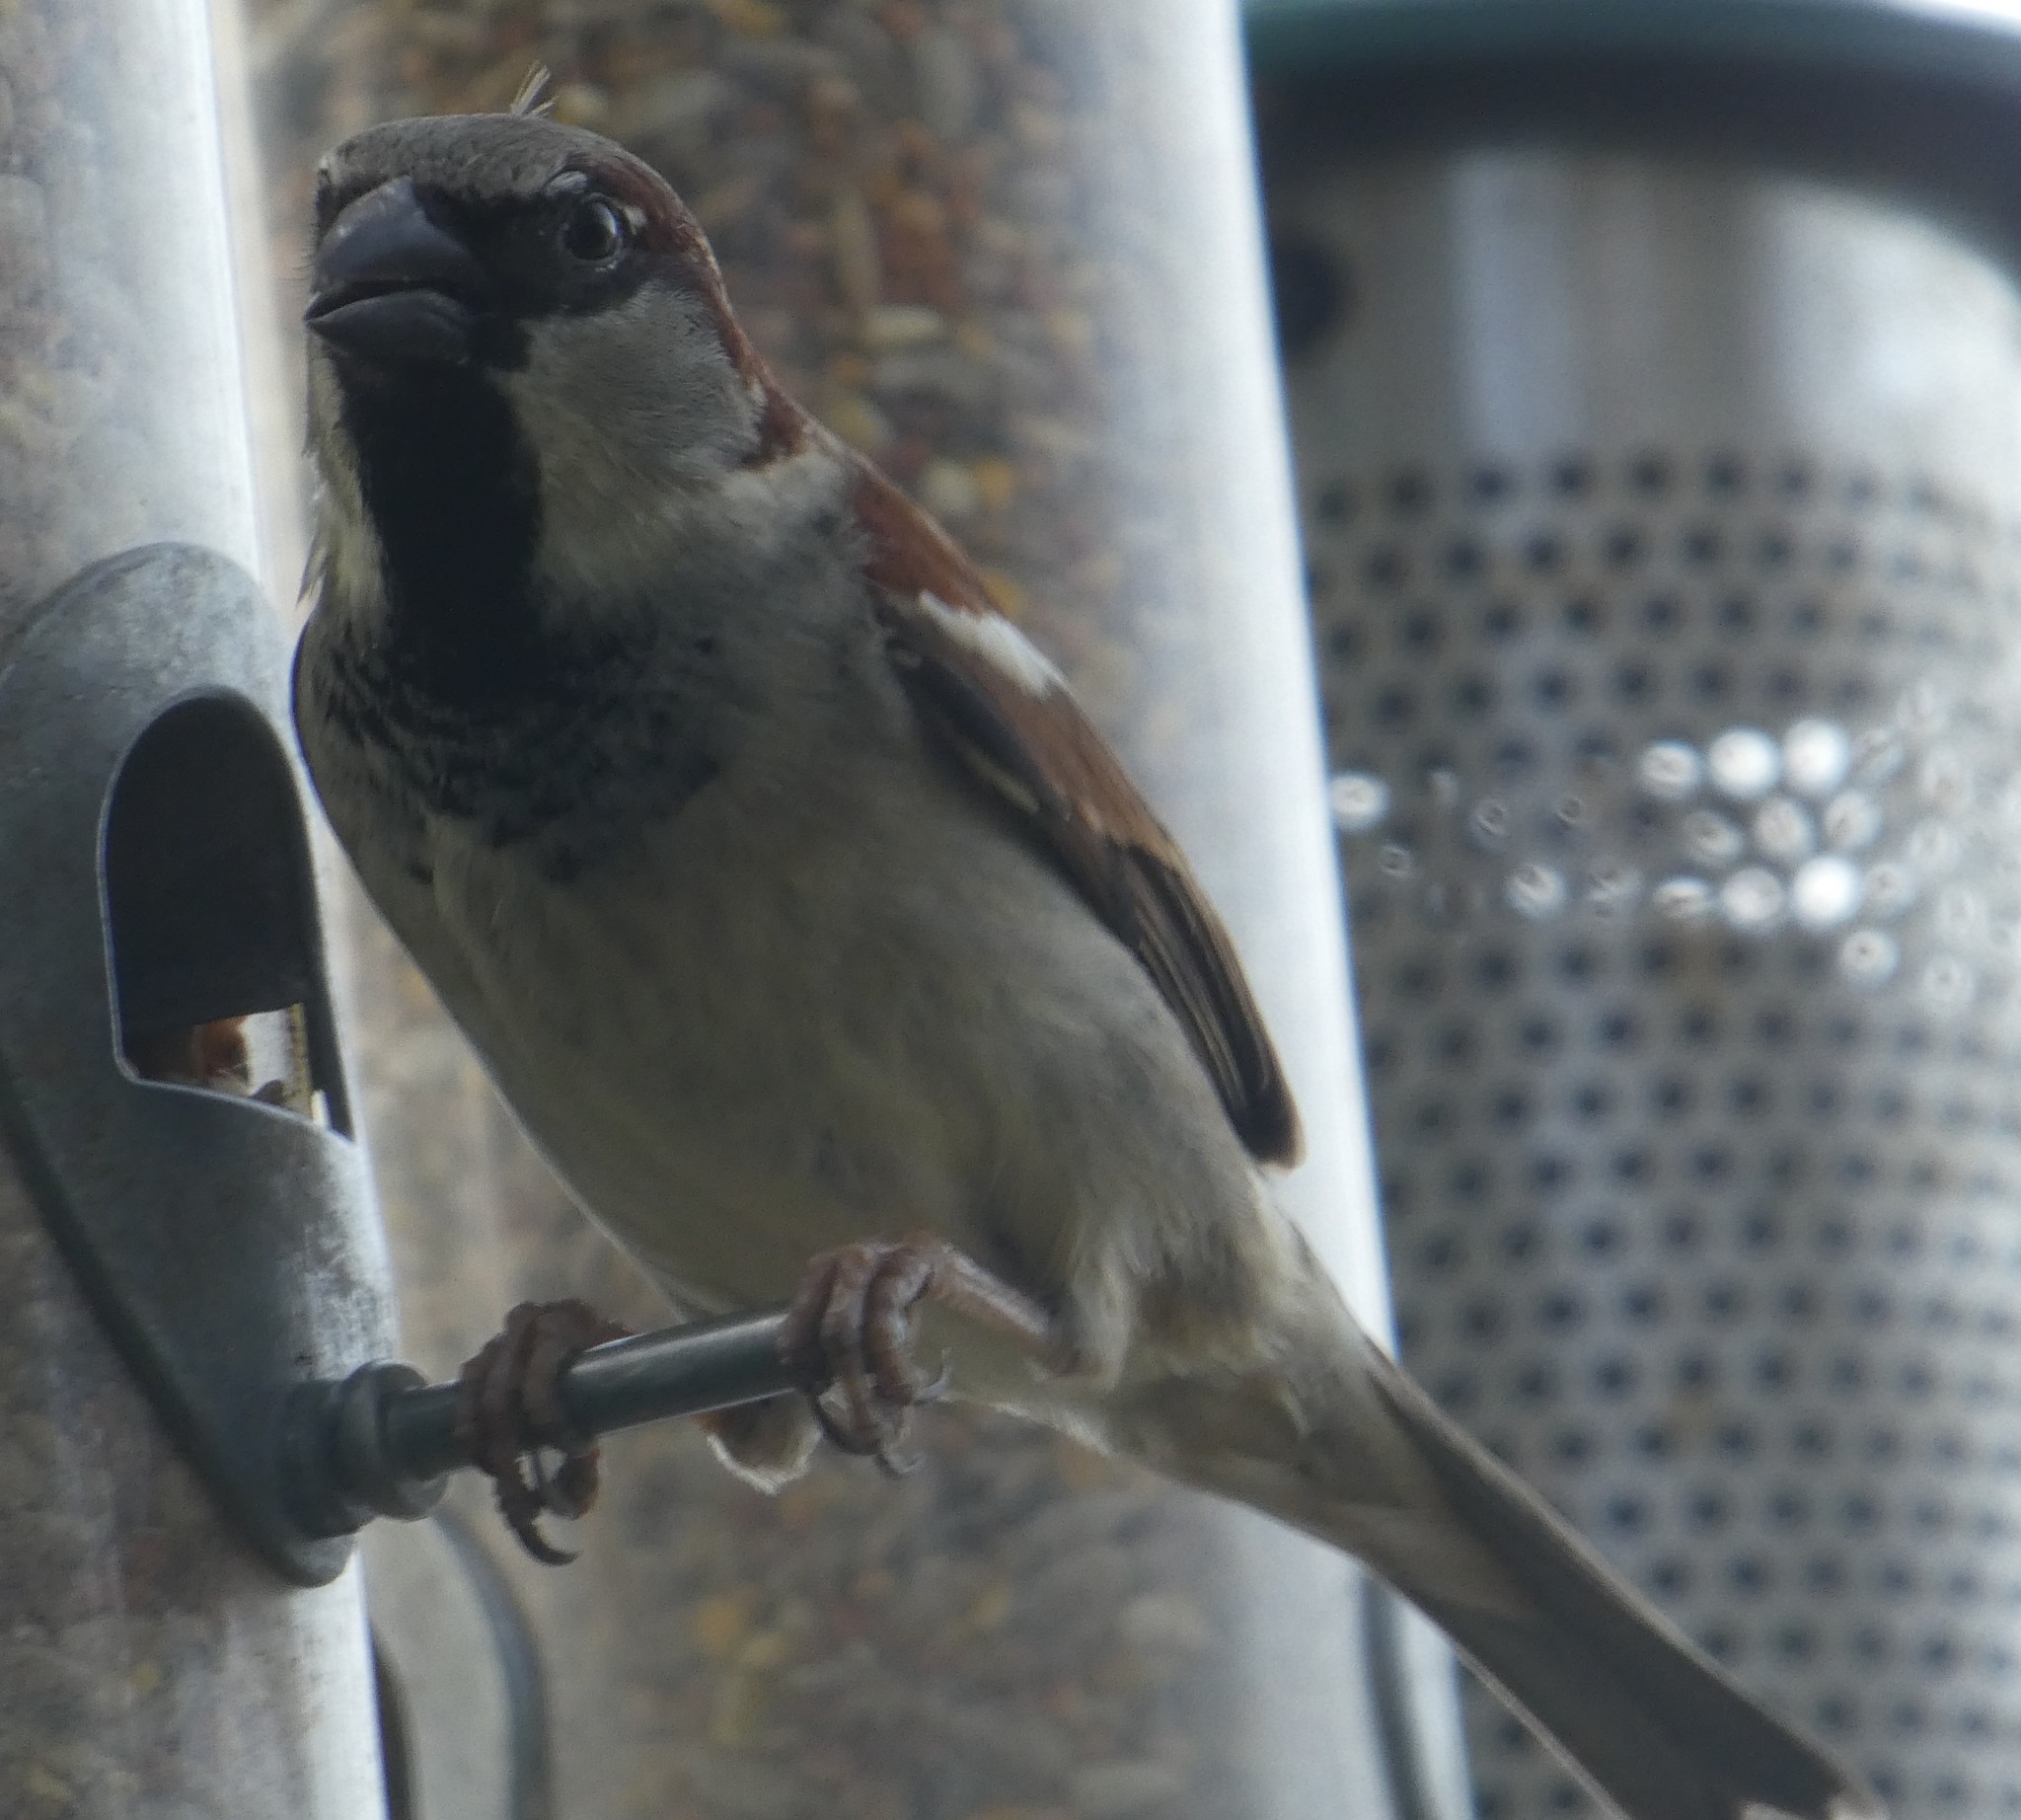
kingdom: Animalia
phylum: Chordata
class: Aves
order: Passeriformes
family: Passeridae
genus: Passer
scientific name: Passer domesticus
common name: House sparrow
